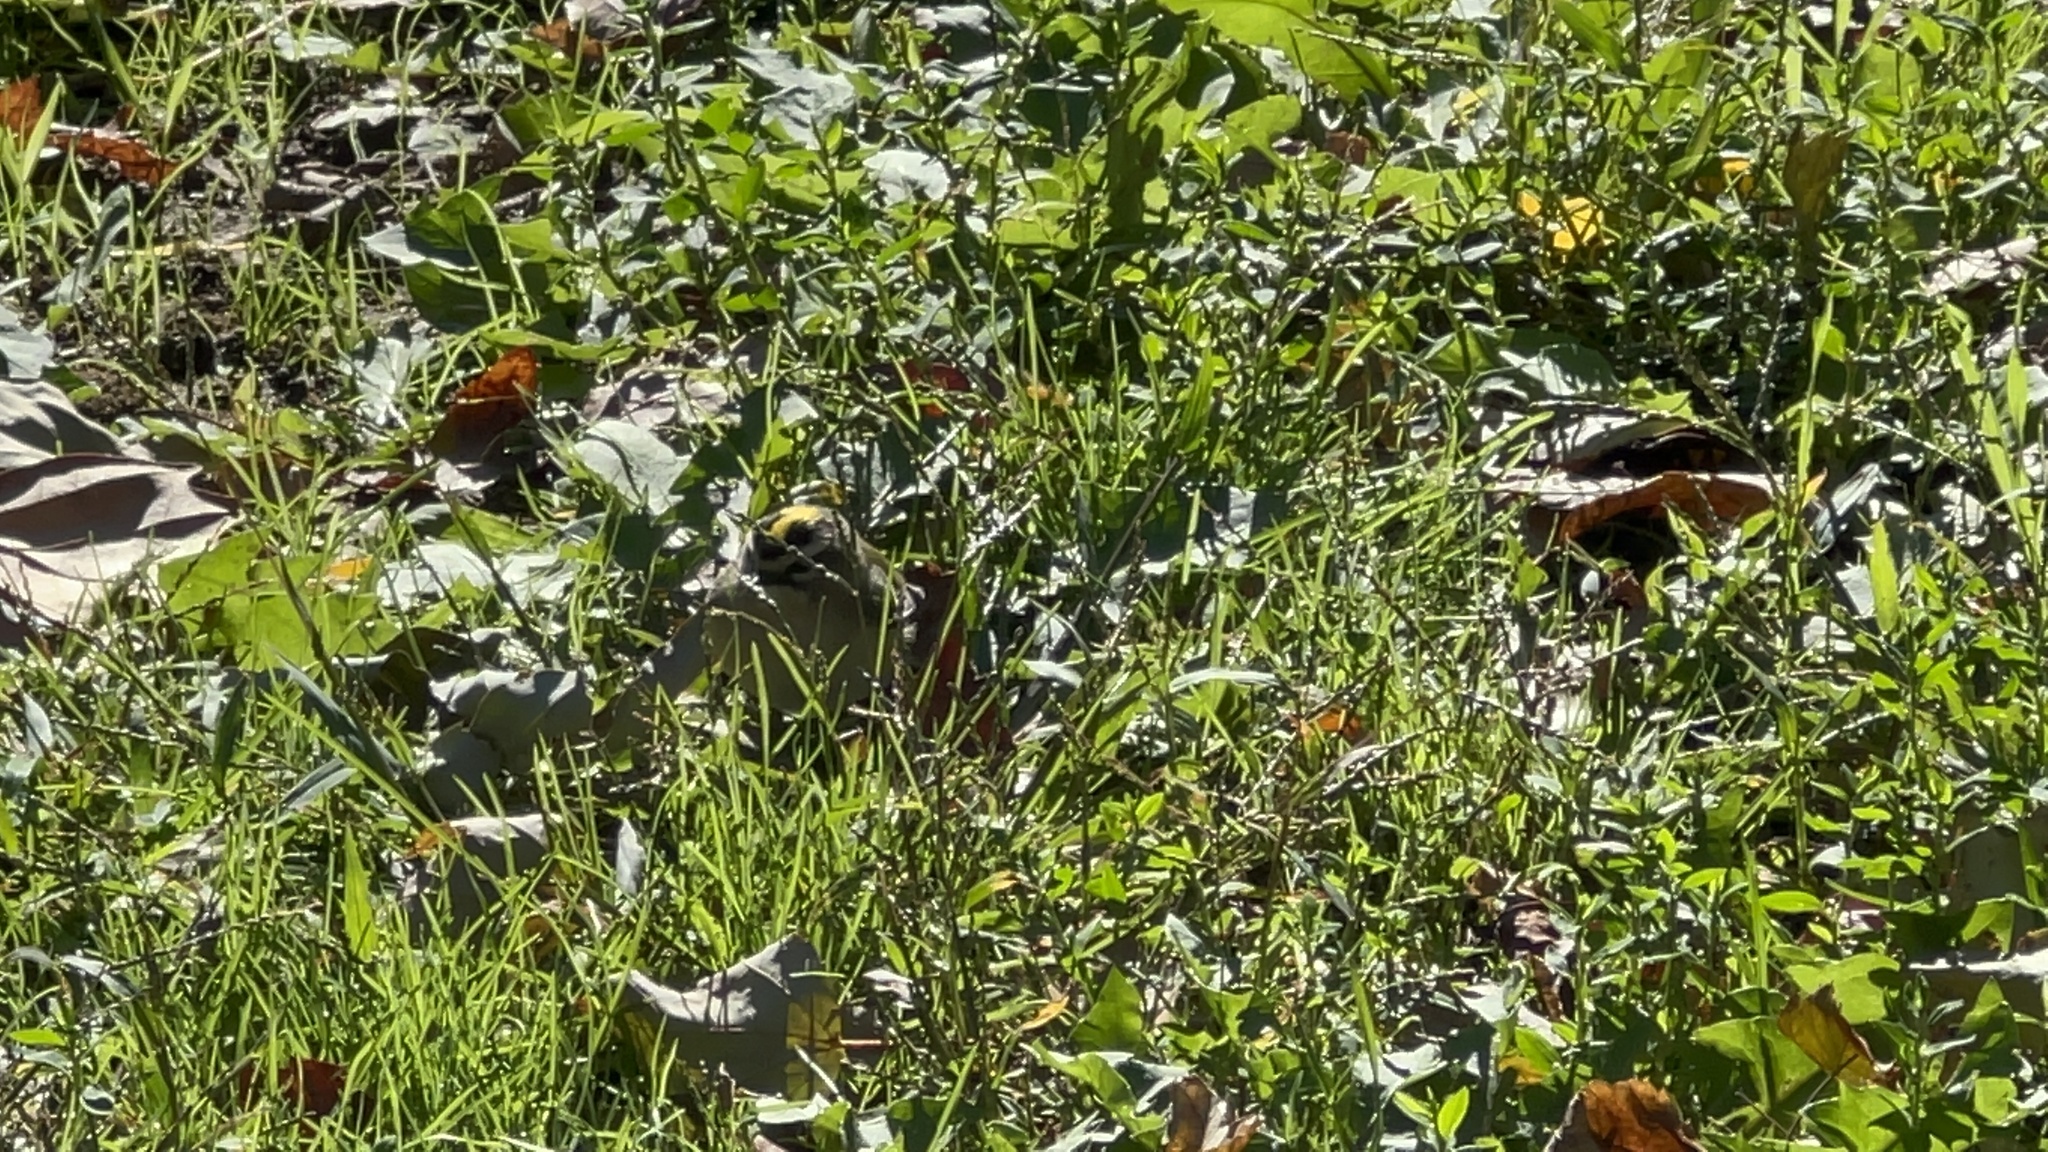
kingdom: Animalia
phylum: Chordata
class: Aves
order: Passeriformes
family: Regulidae
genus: Regulus
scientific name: Regulus satrapa
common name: Golden-crowned kinglet
